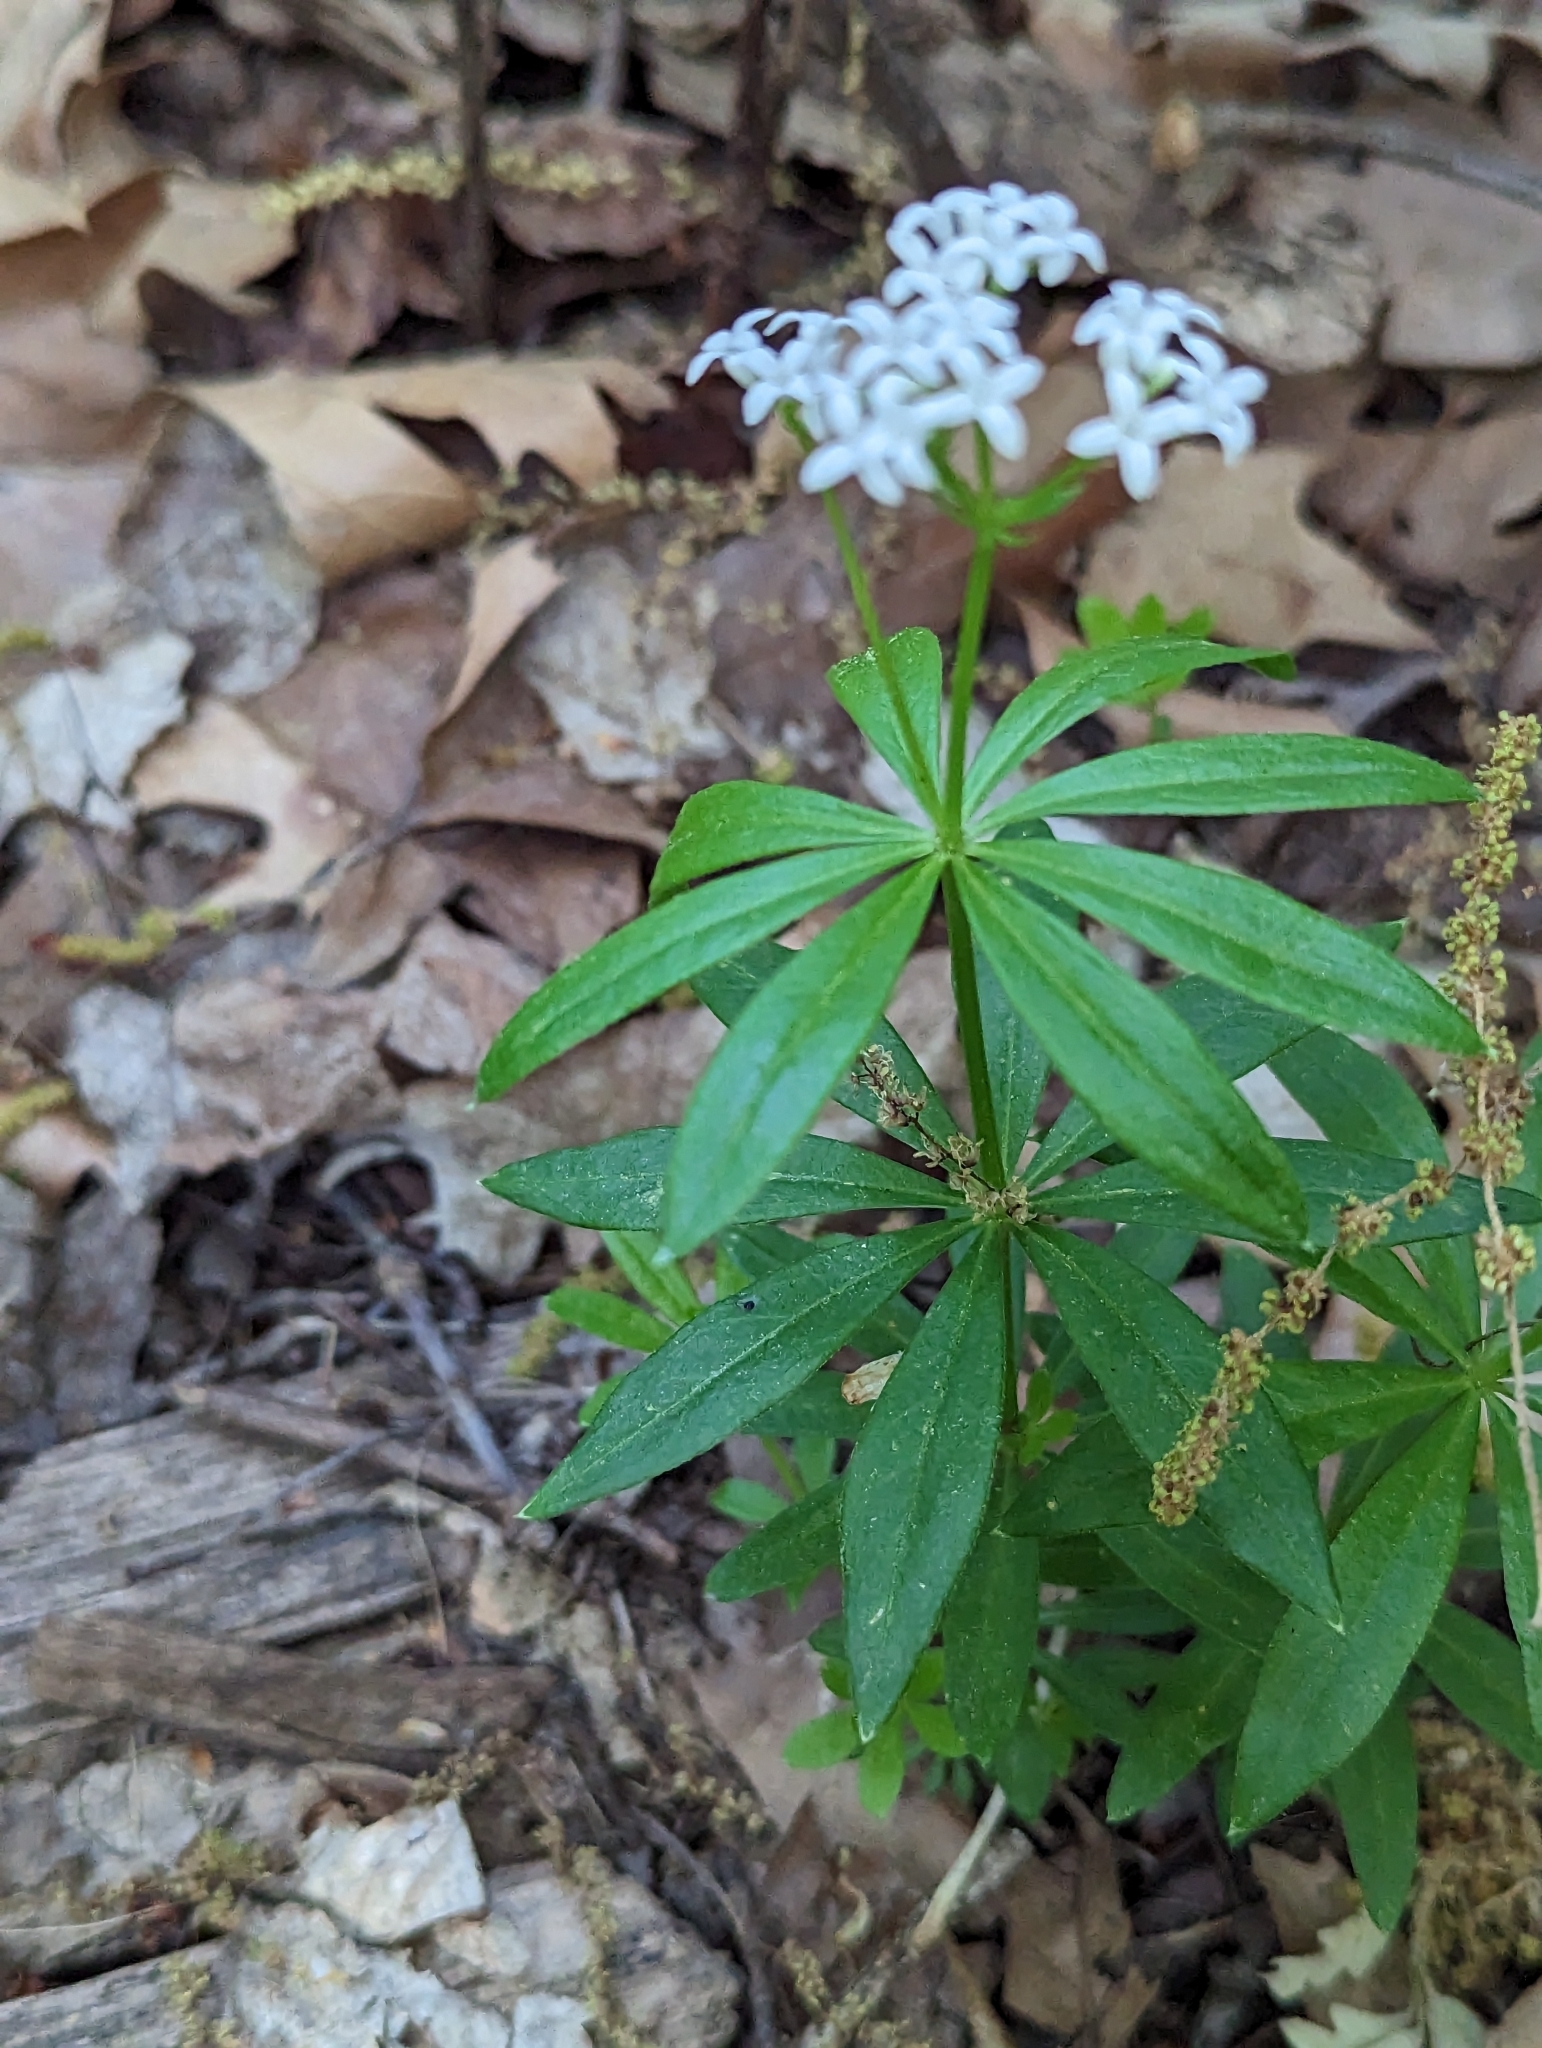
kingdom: Plantae
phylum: Tracheophyta
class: Magnoliopsida
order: Gentianales
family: Rubiaceae
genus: Galium
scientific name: Galium odoratum
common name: Sweet woodruff
